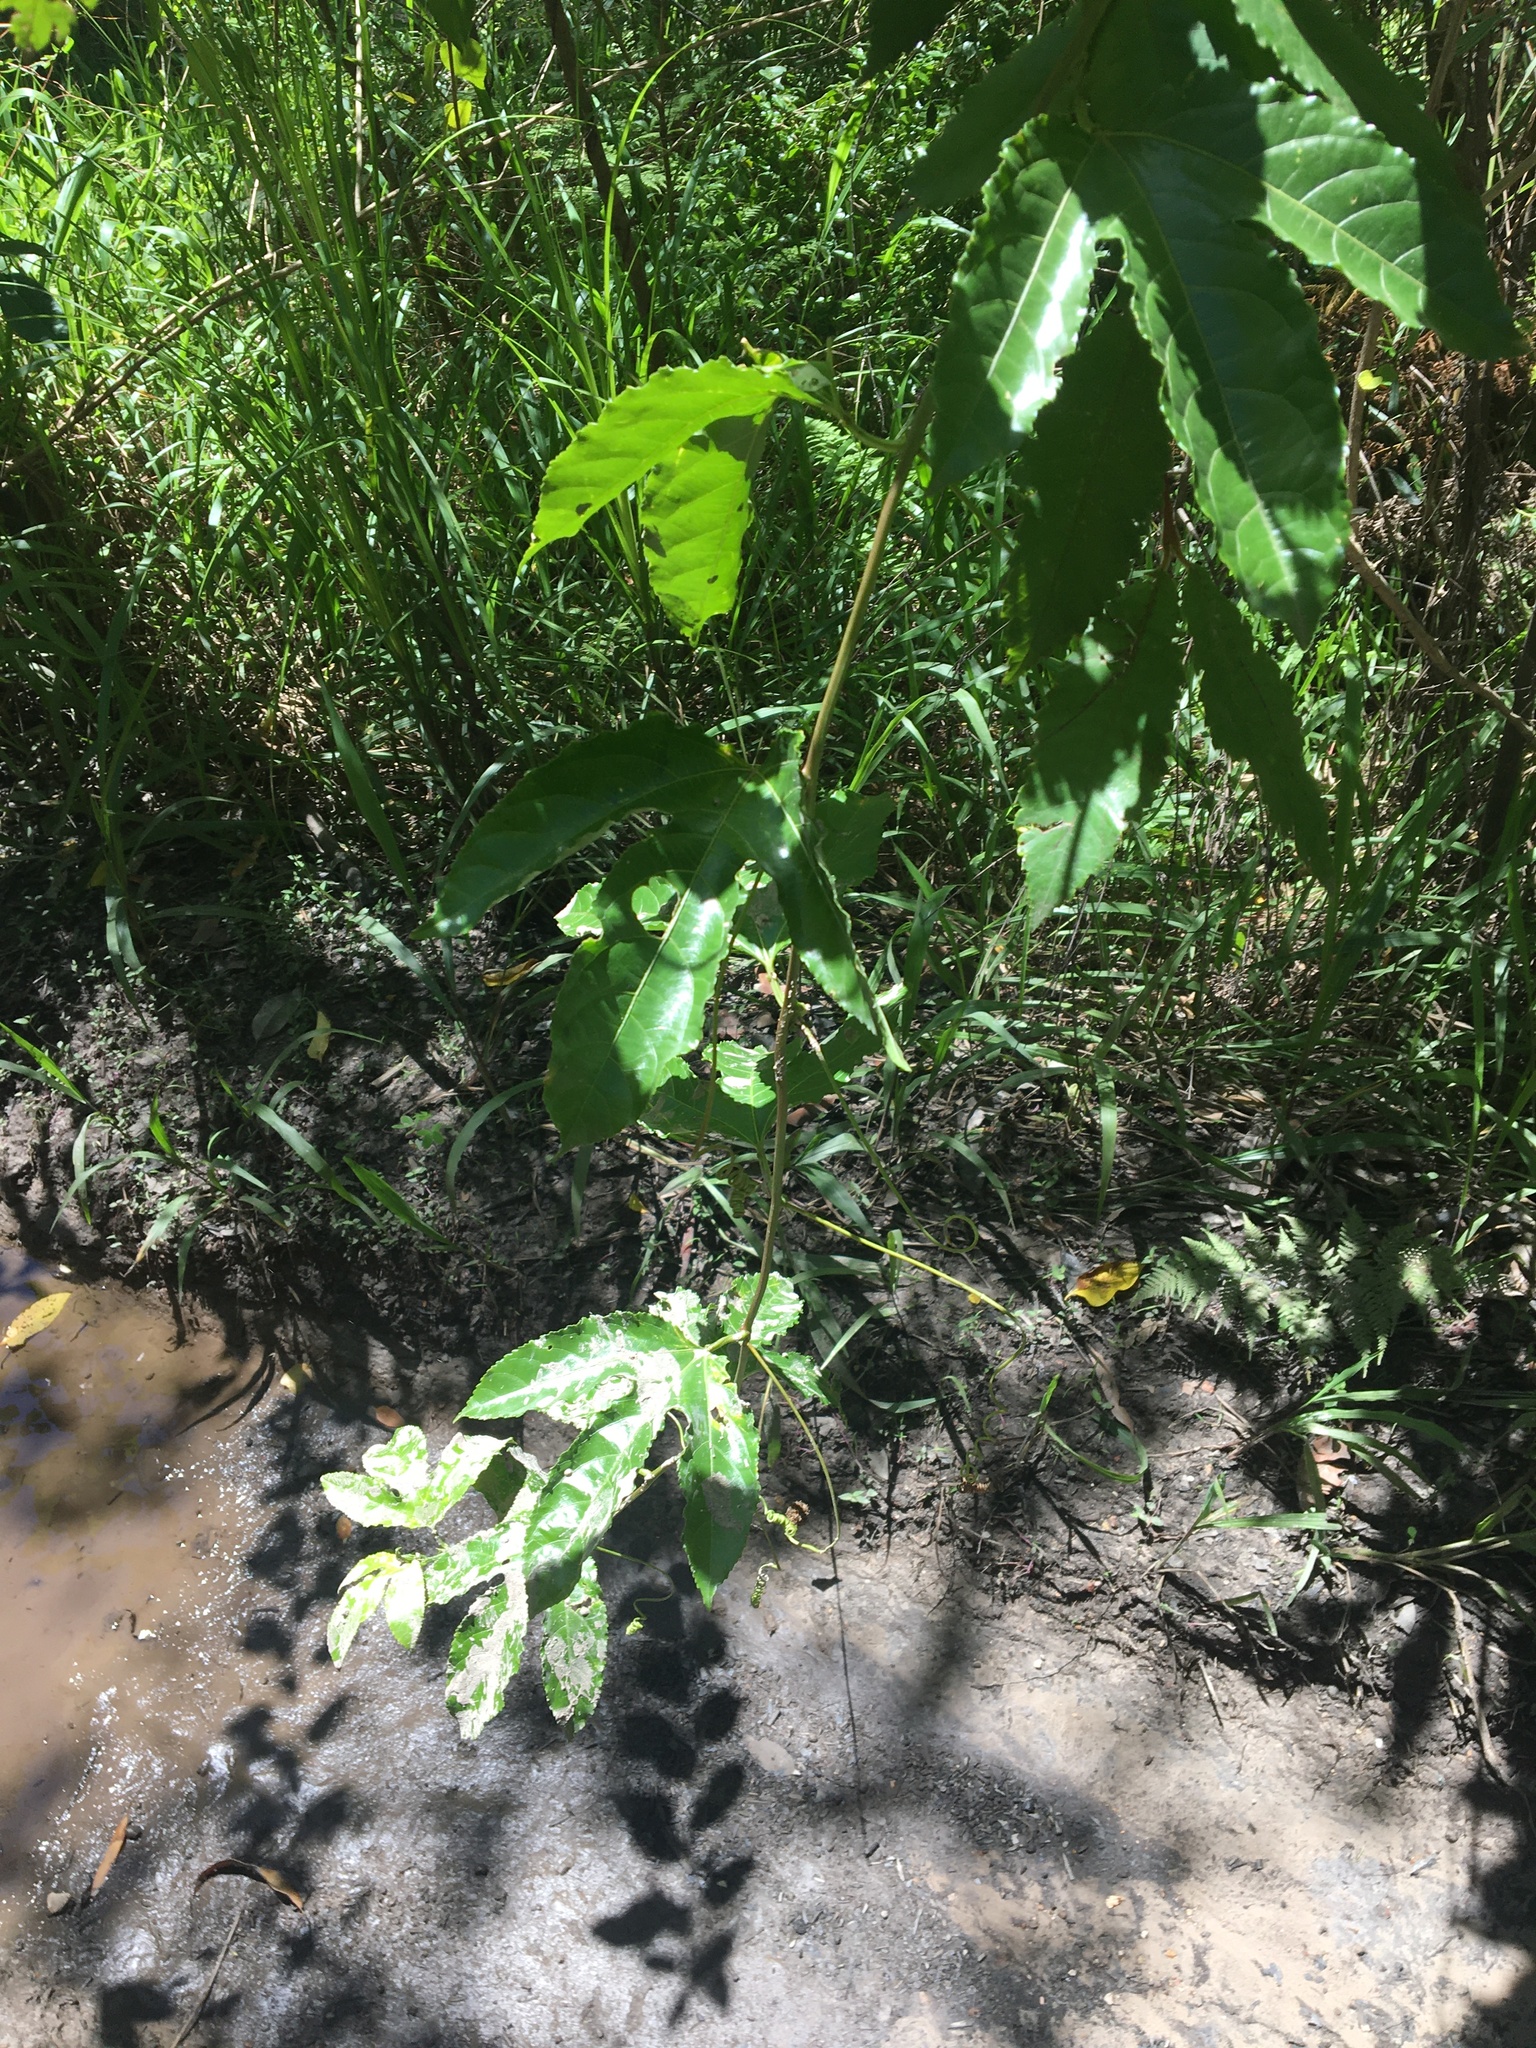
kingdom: Plantae
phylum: Tracheophyta
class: Magnoliopsida
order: Malpighiales
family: Passifloraceae
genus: Passiflora
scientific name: Passiflora edulis
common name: Purple granadilla
